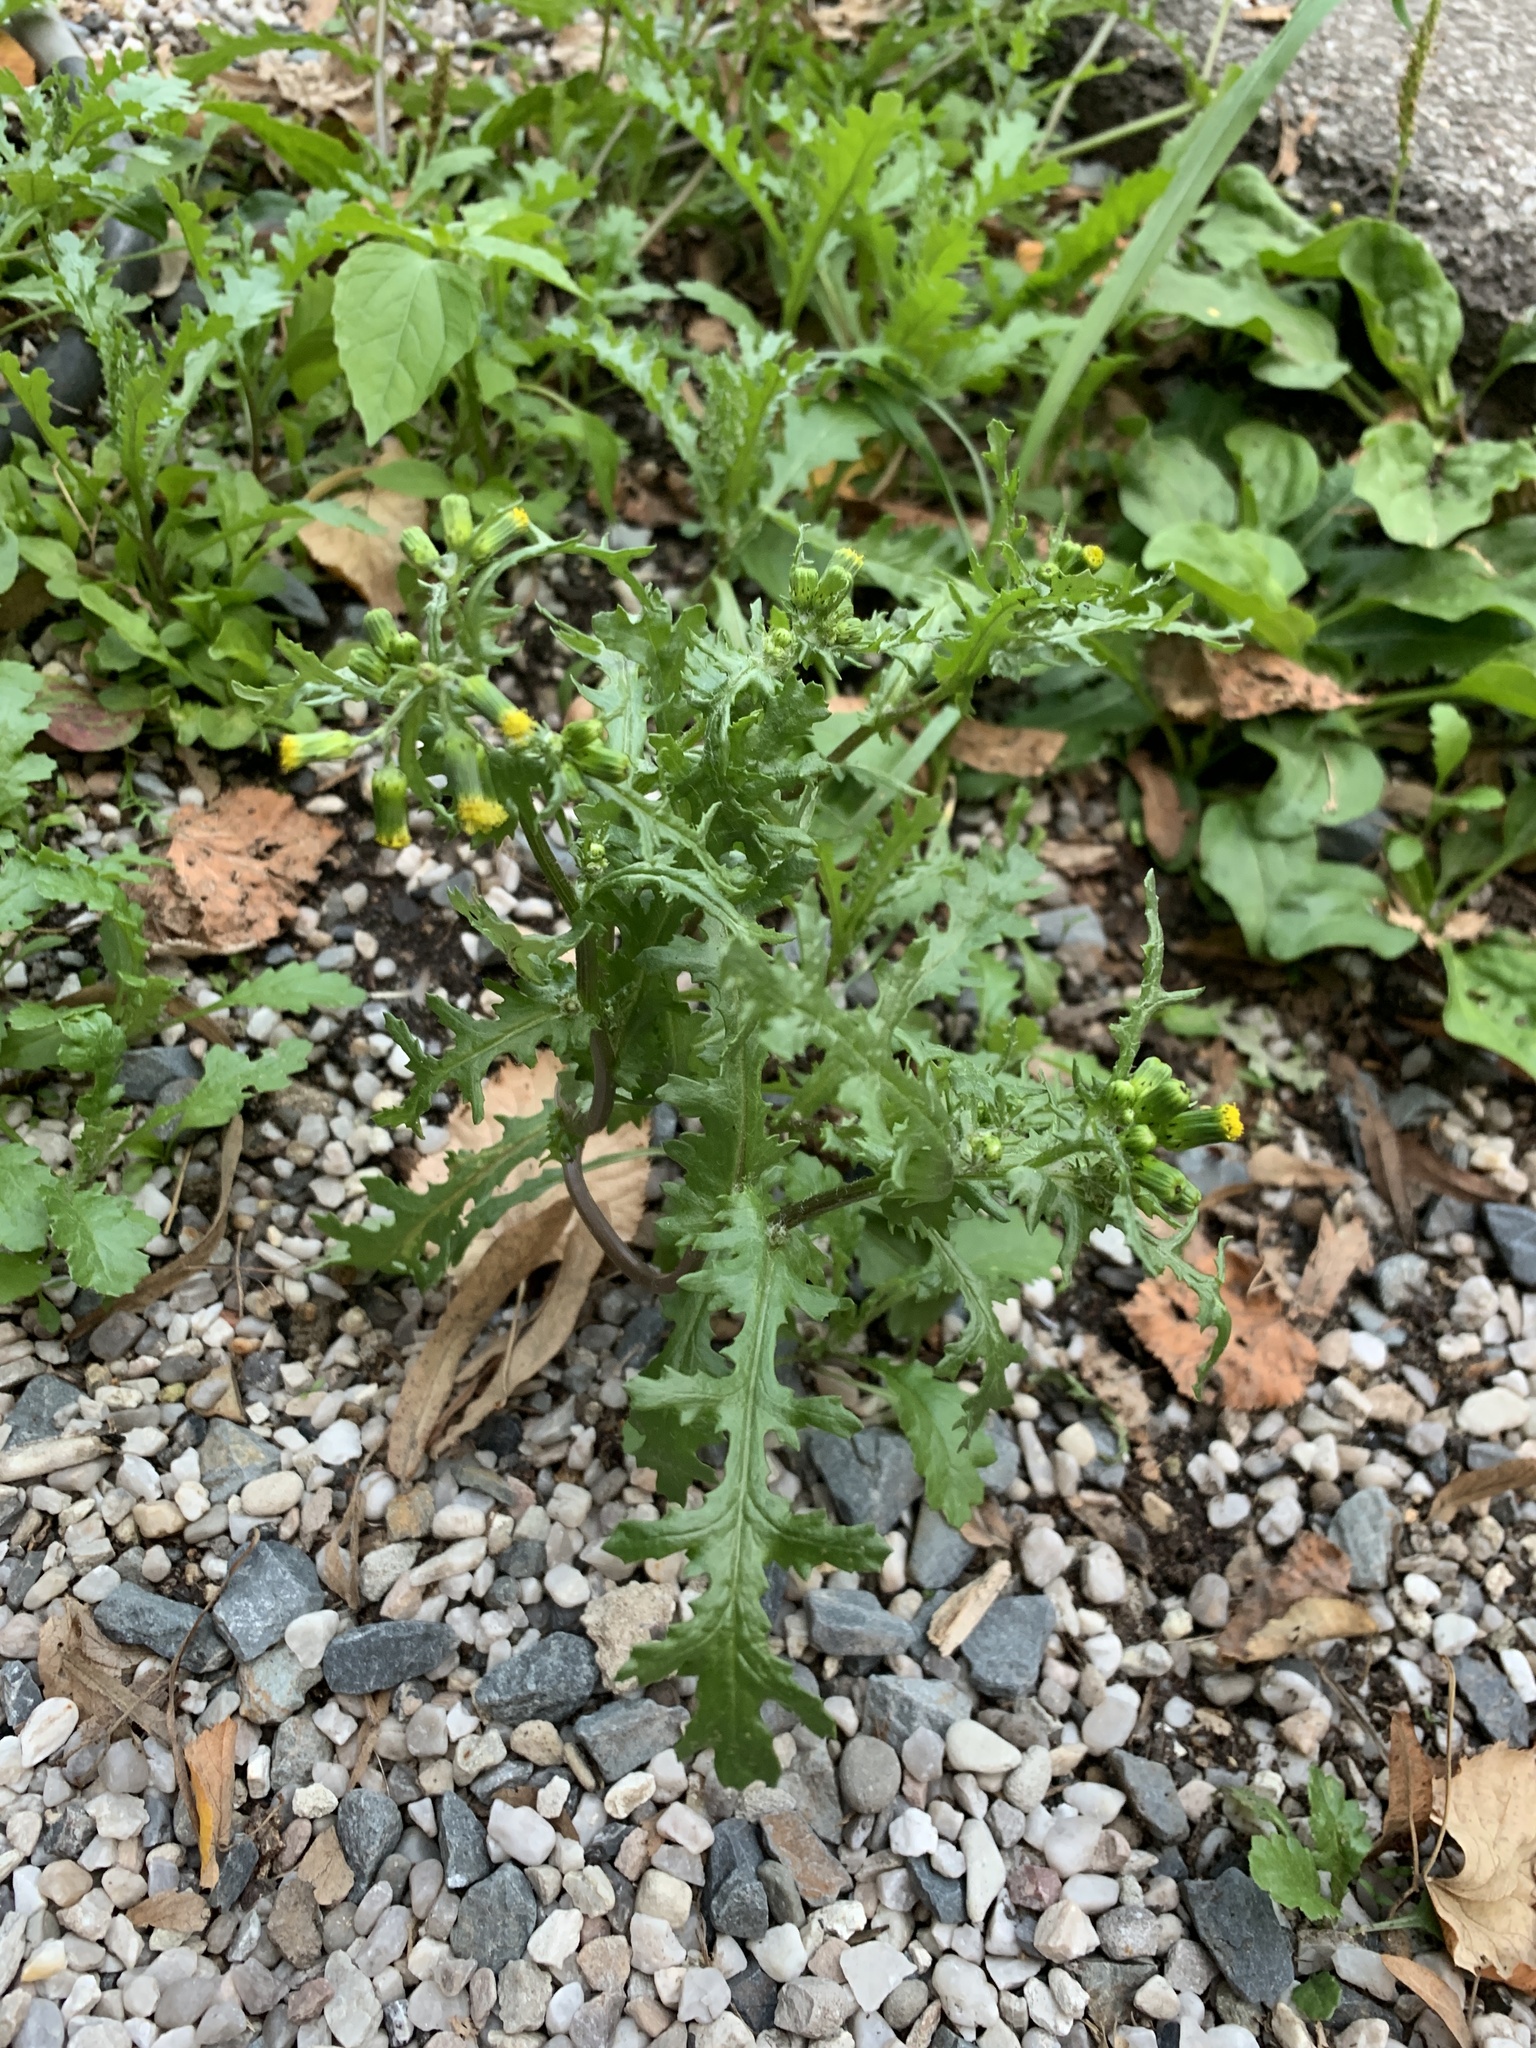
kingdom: Plantae
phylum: Tracheophyta
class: Magnoliopsida
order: Asterales
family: Asteraceae
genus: Senecio
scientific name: Senecio vulgaris
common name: Old-man-in-the-spring
